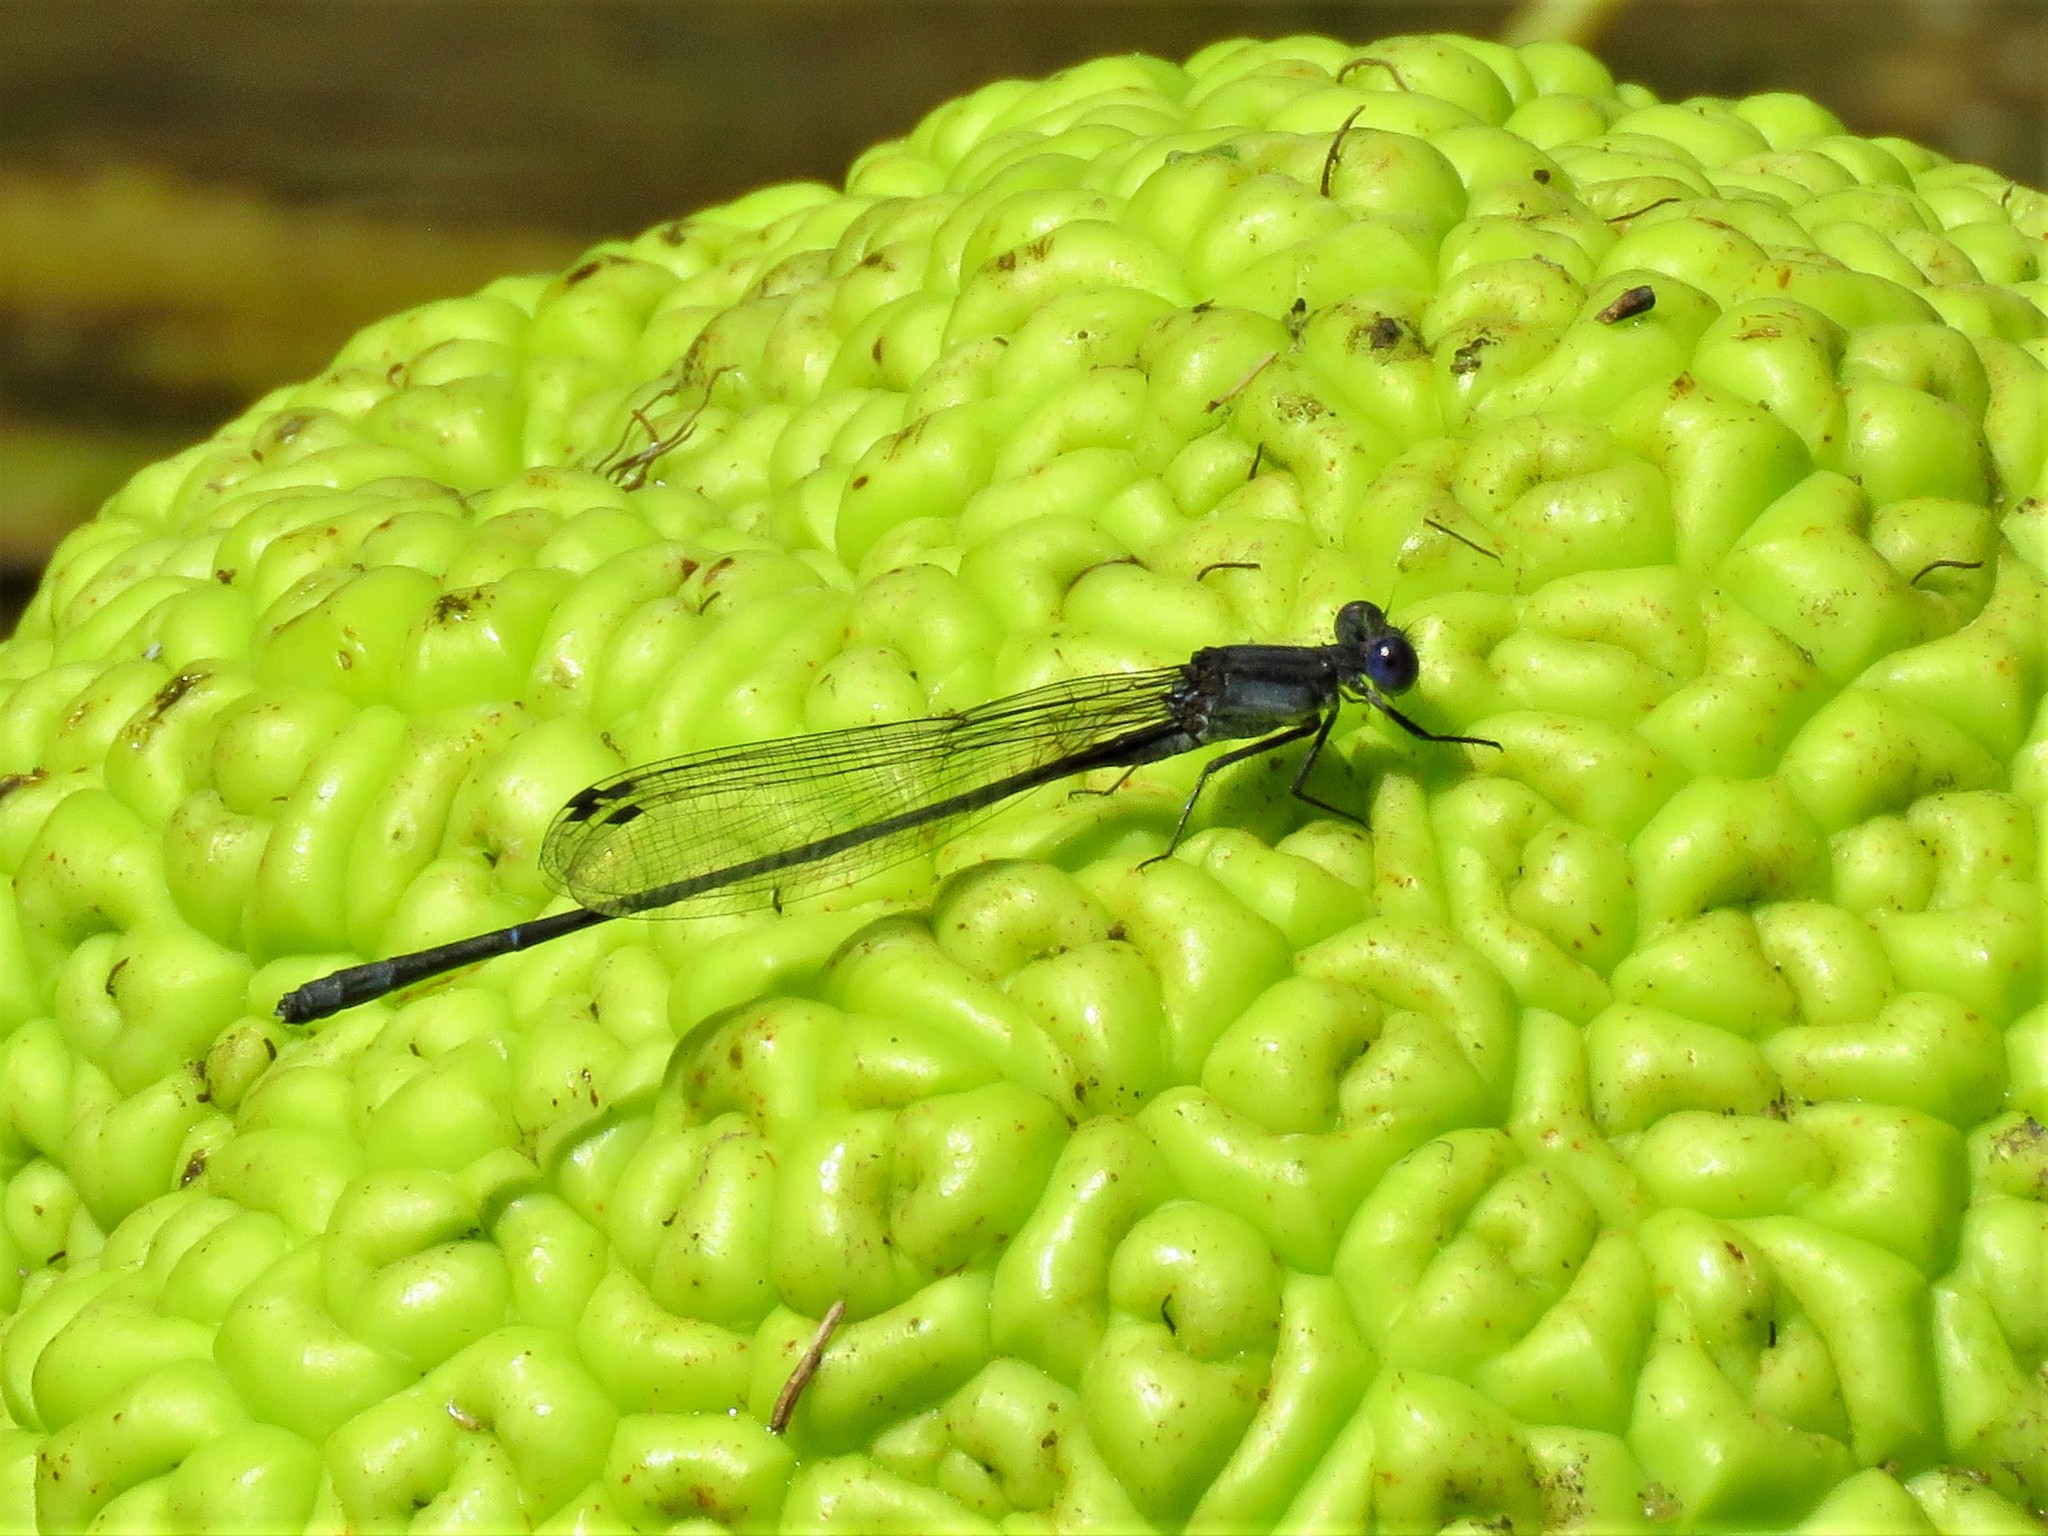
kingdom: Animalia
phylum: Arthropoda
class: Insecta
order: Odonata
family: Coenagrionidae
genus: Argia
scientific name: Argia translata
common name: Dusky dancer
